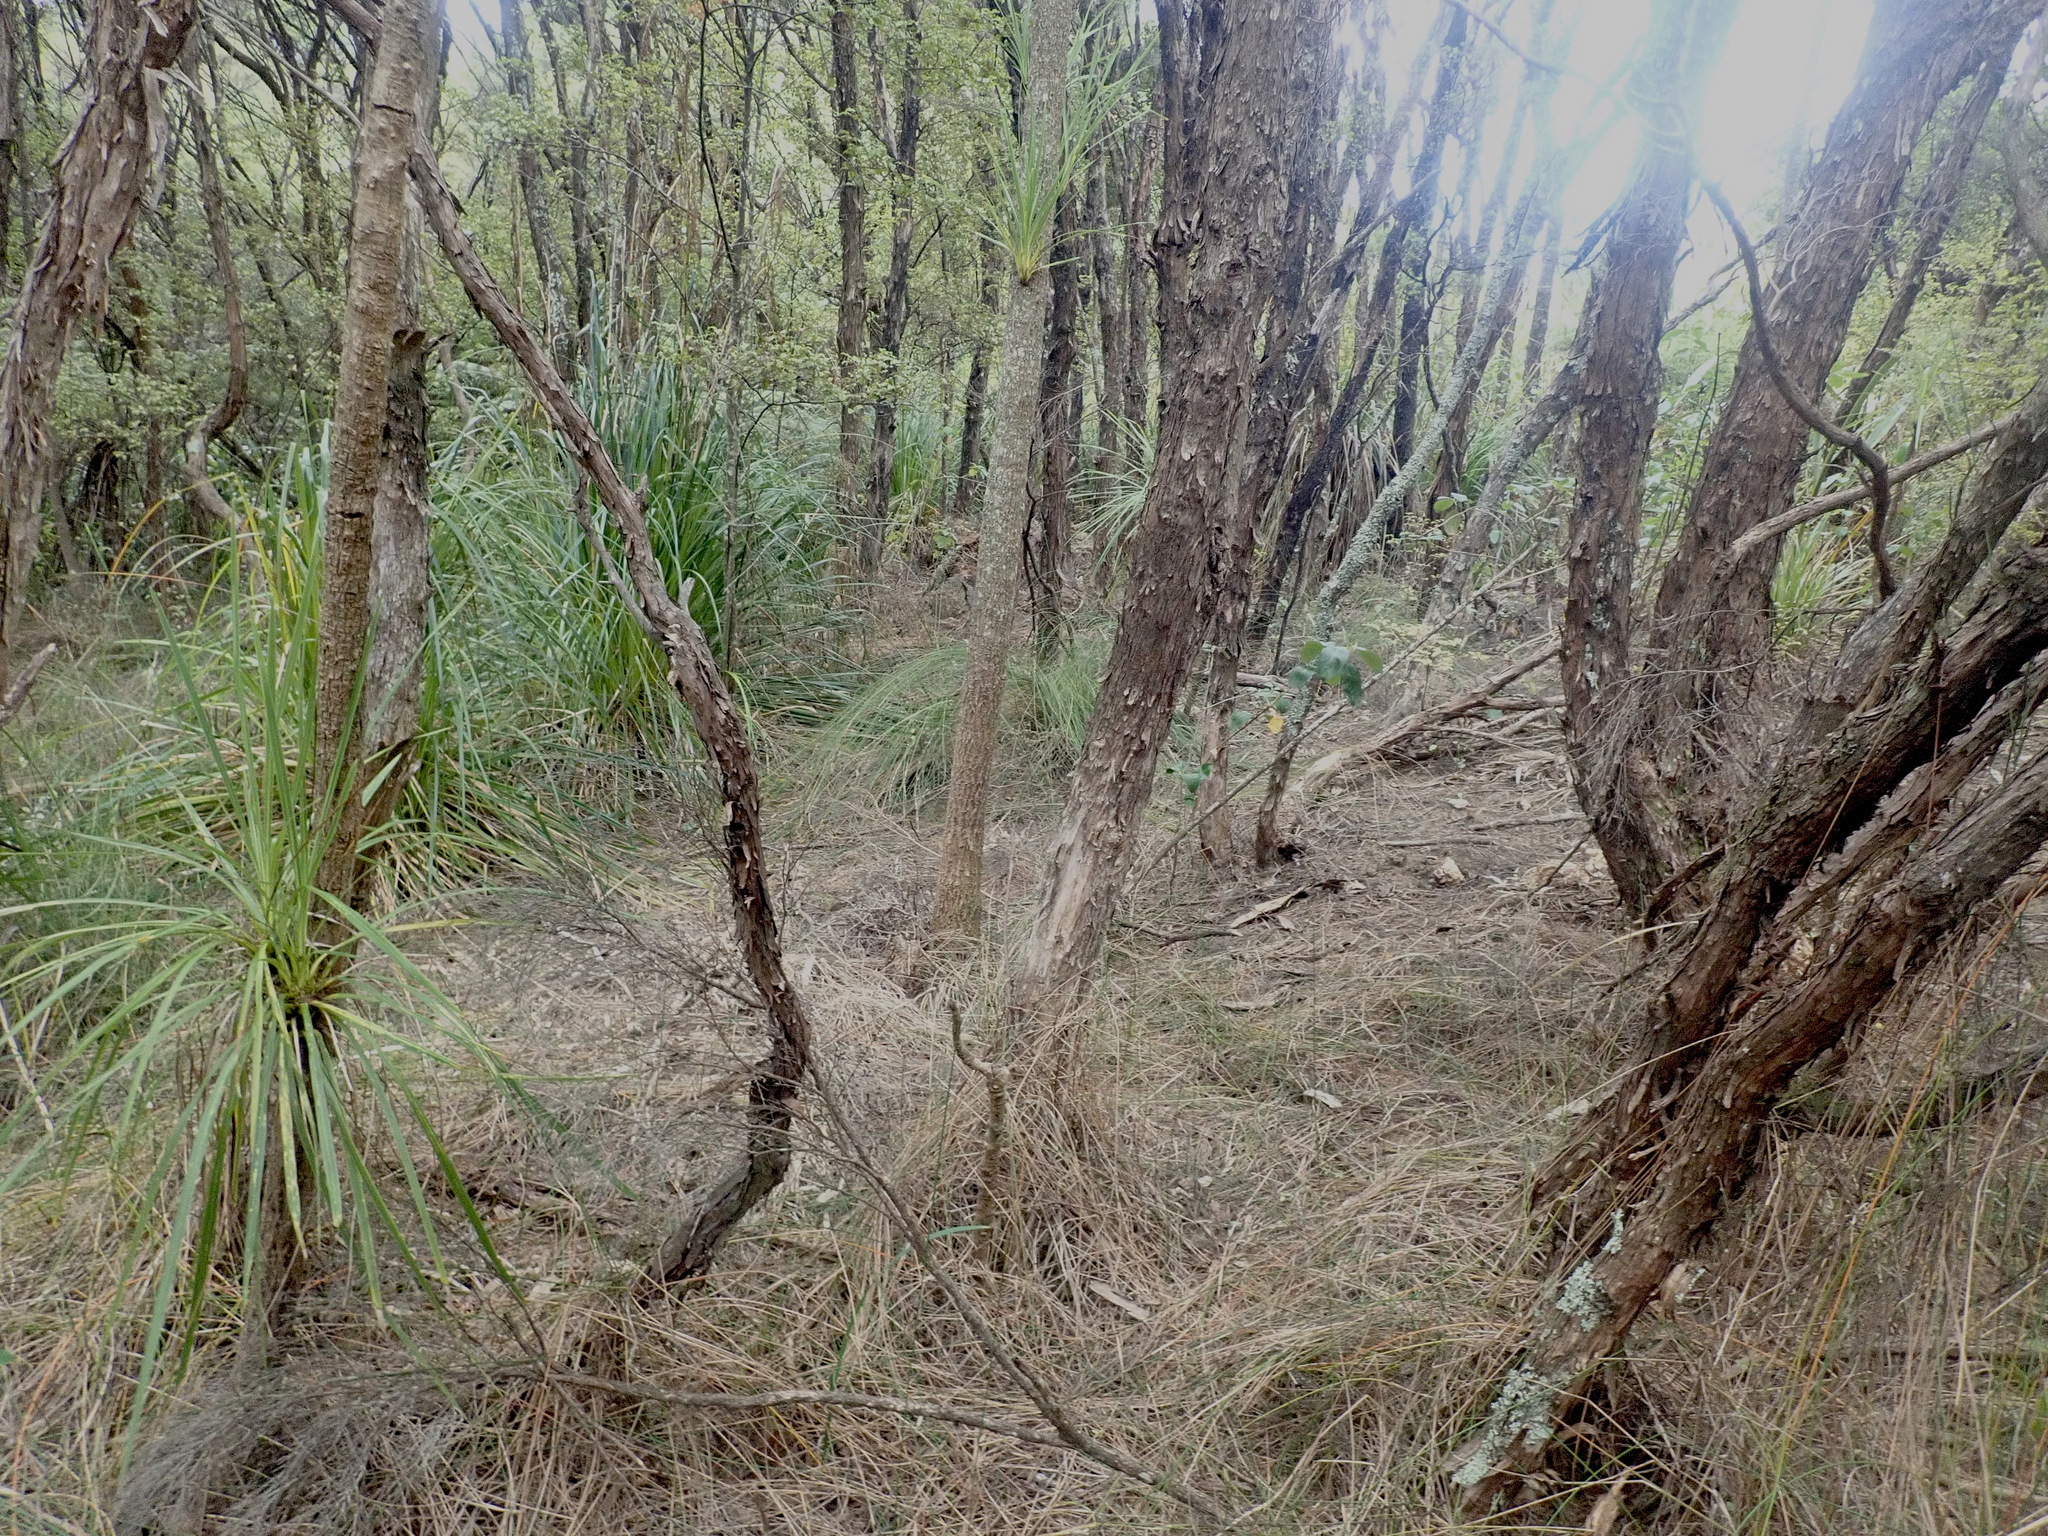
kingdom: Plantae
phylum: Tracheophyta
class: Liliopsida
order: Asparagales
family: Asparagaceae
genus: Cordyline
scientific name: Cordyline australis
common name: Cabbage-palm
